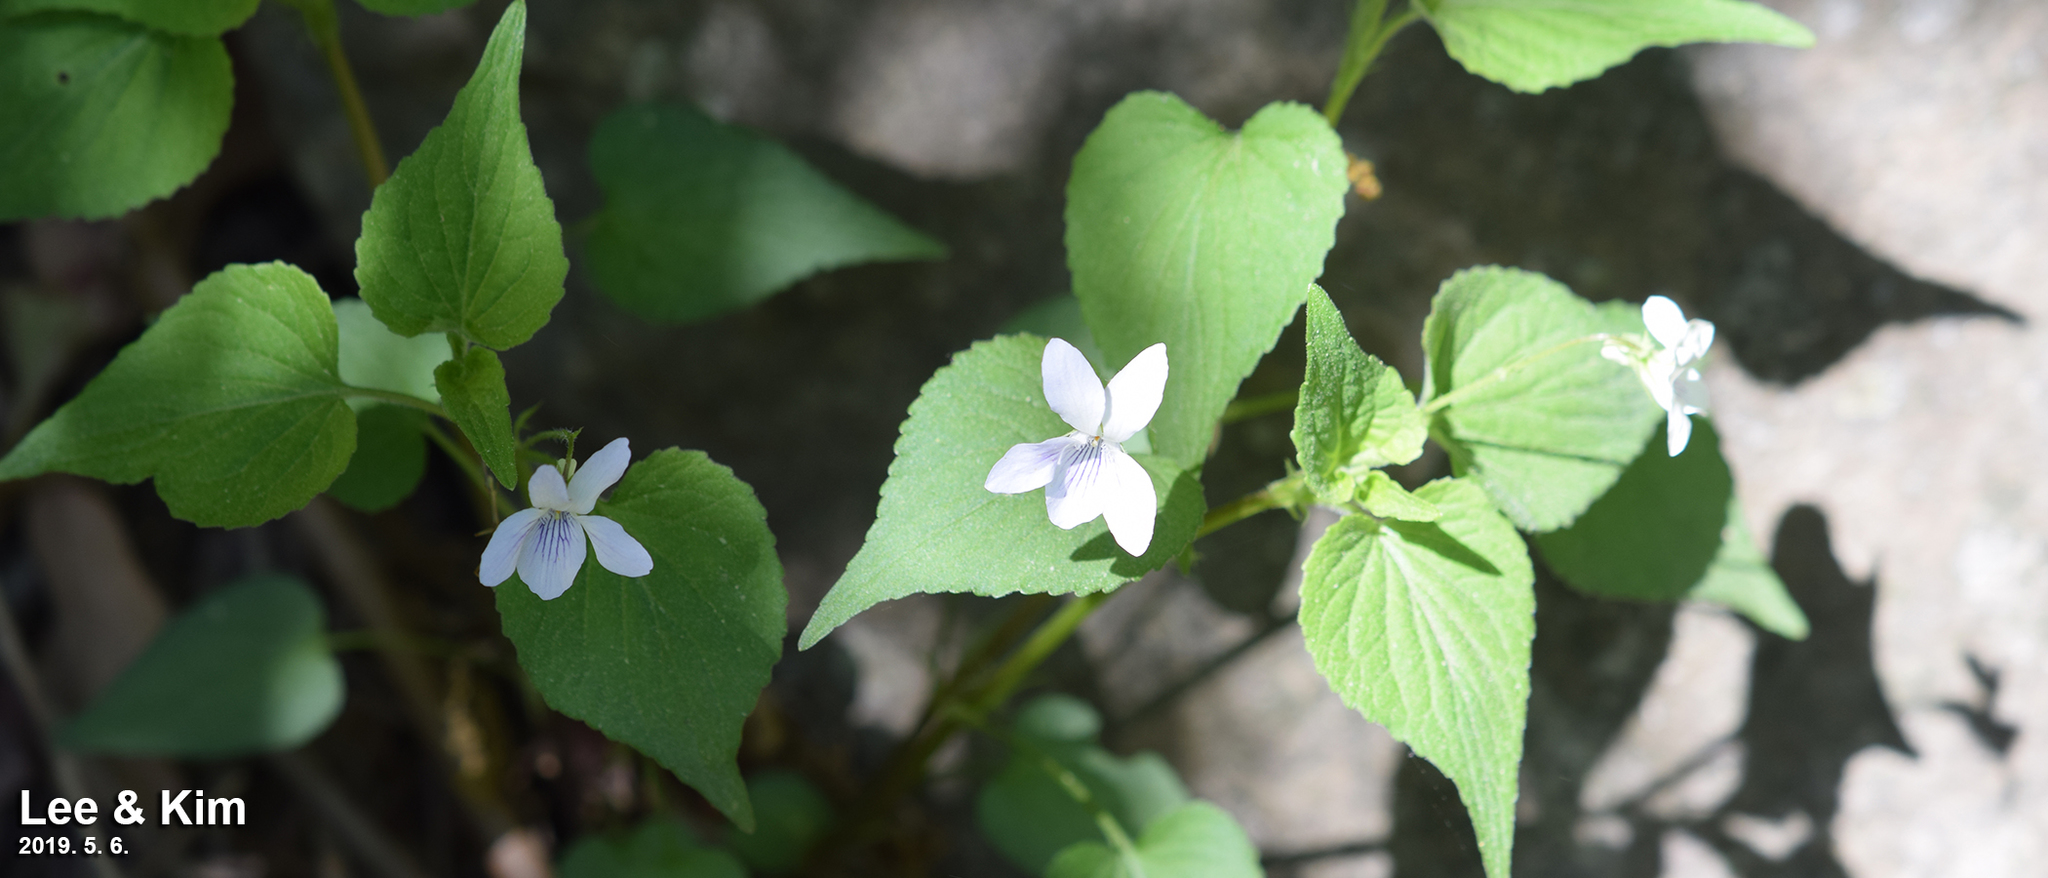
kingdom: Plantae
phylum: Tracheophyta
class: Magnoliopsida
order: Malpighiales
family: Violaceae
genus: Viola
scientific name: Viola acuminata
